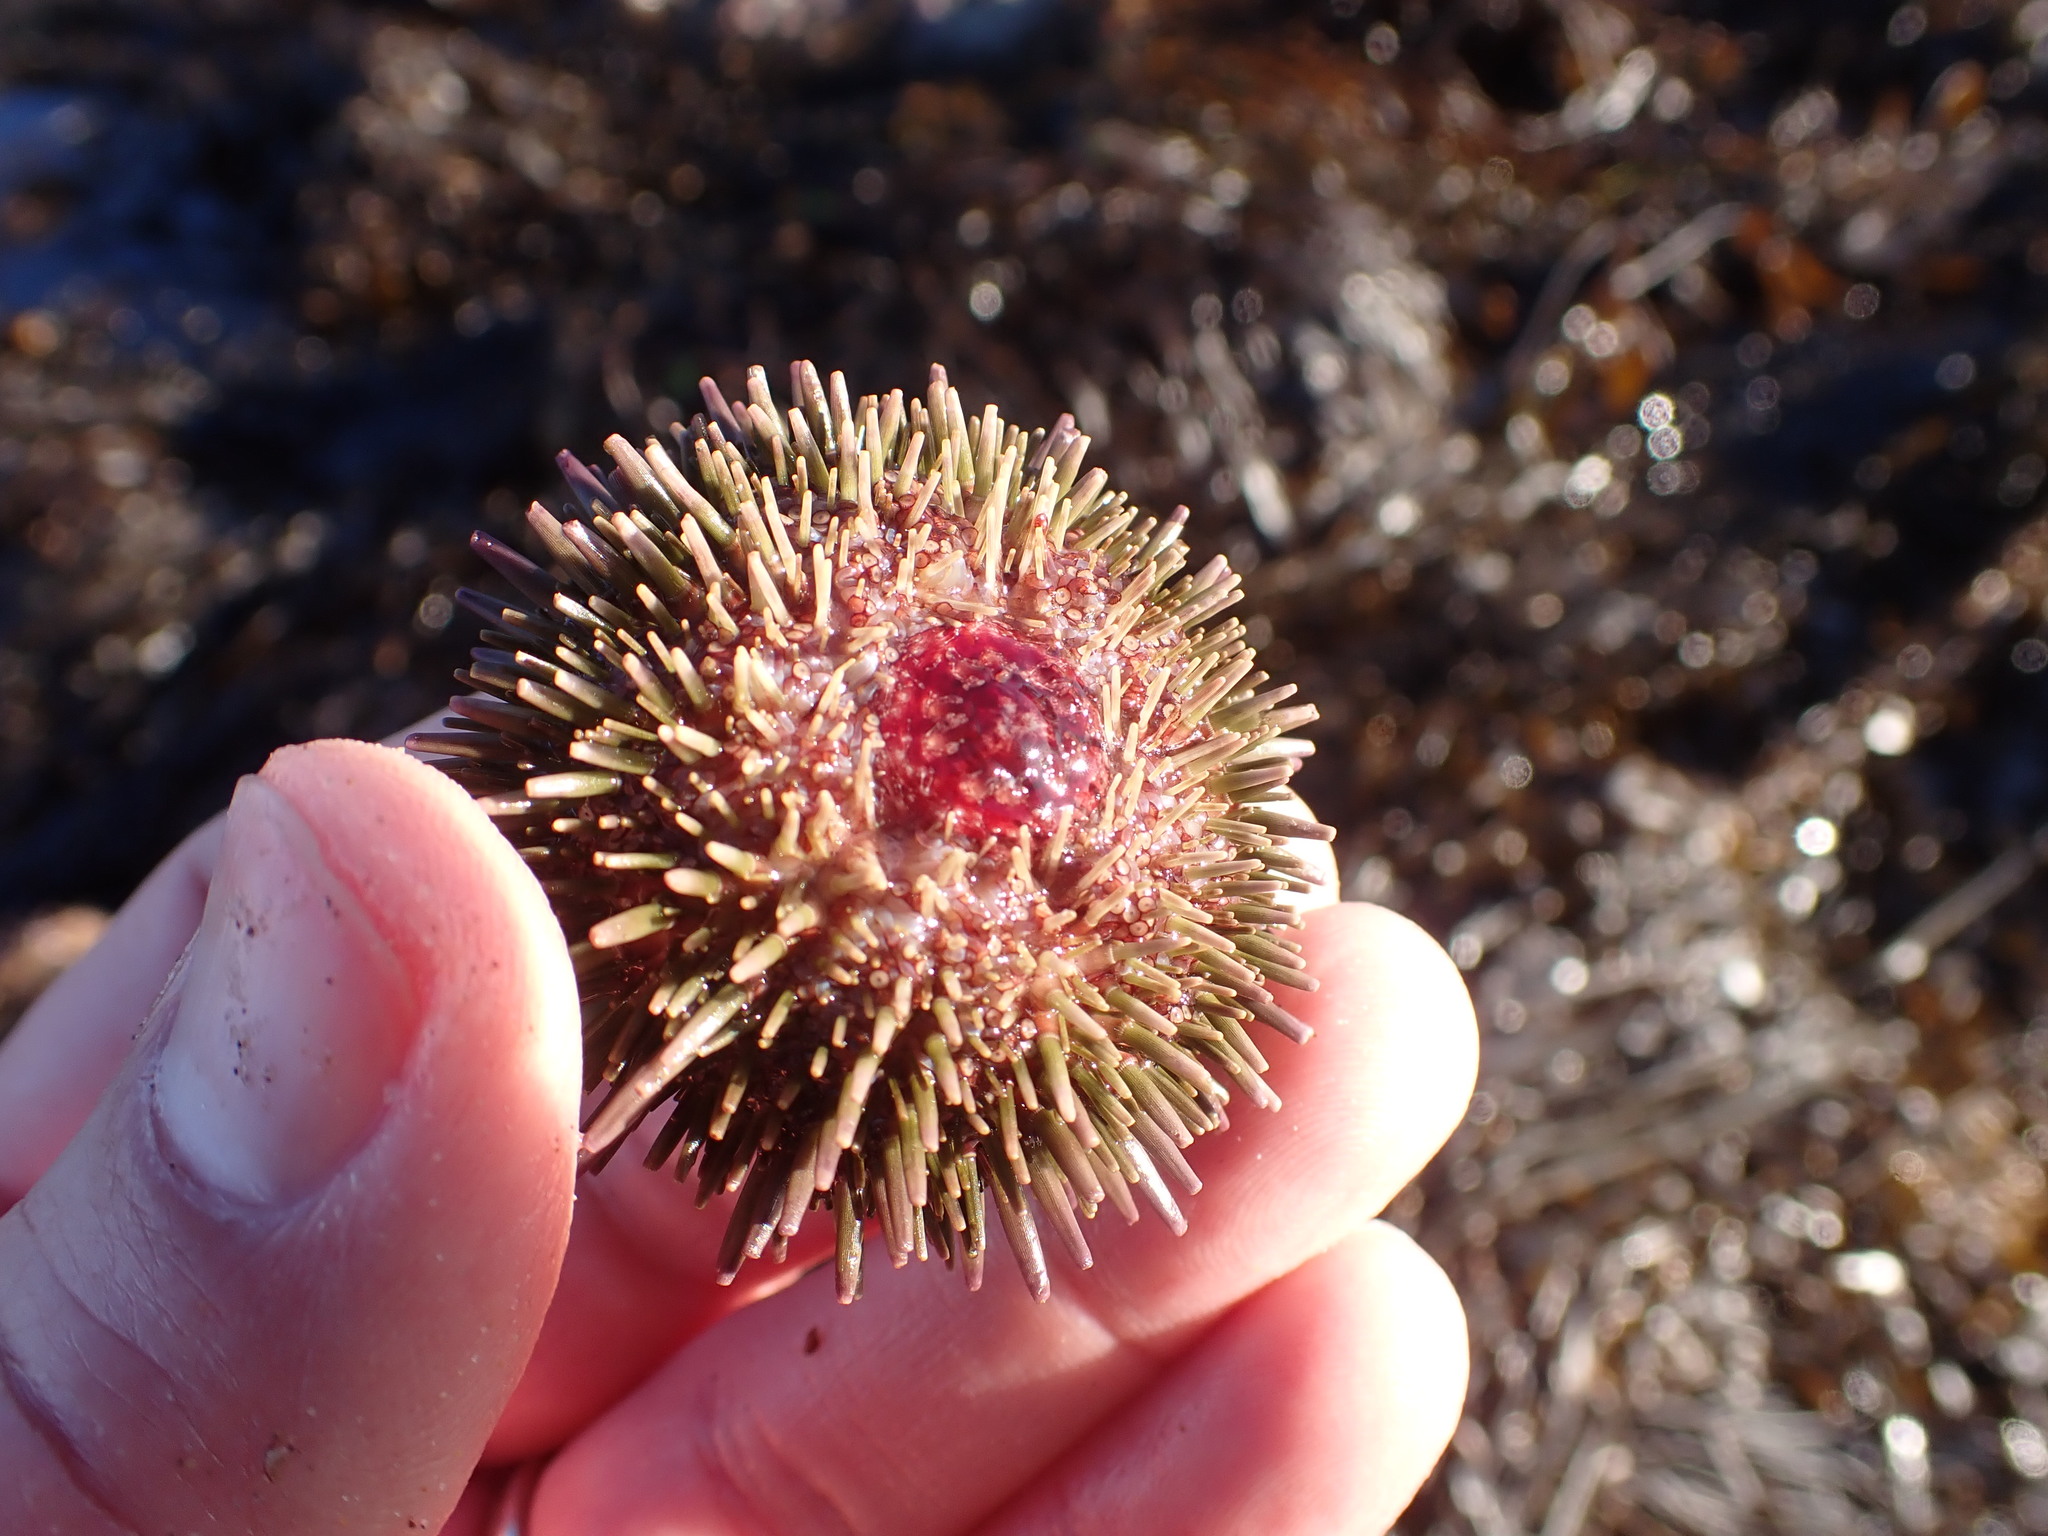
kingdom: Animalia
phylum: Echinodermata
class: Echinoidea
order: Camarodonta
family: Strongylocentrotidae
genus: Strongylocentrotus
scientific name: Strongylocentrotus purpuratus
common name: Purple sea urchin
